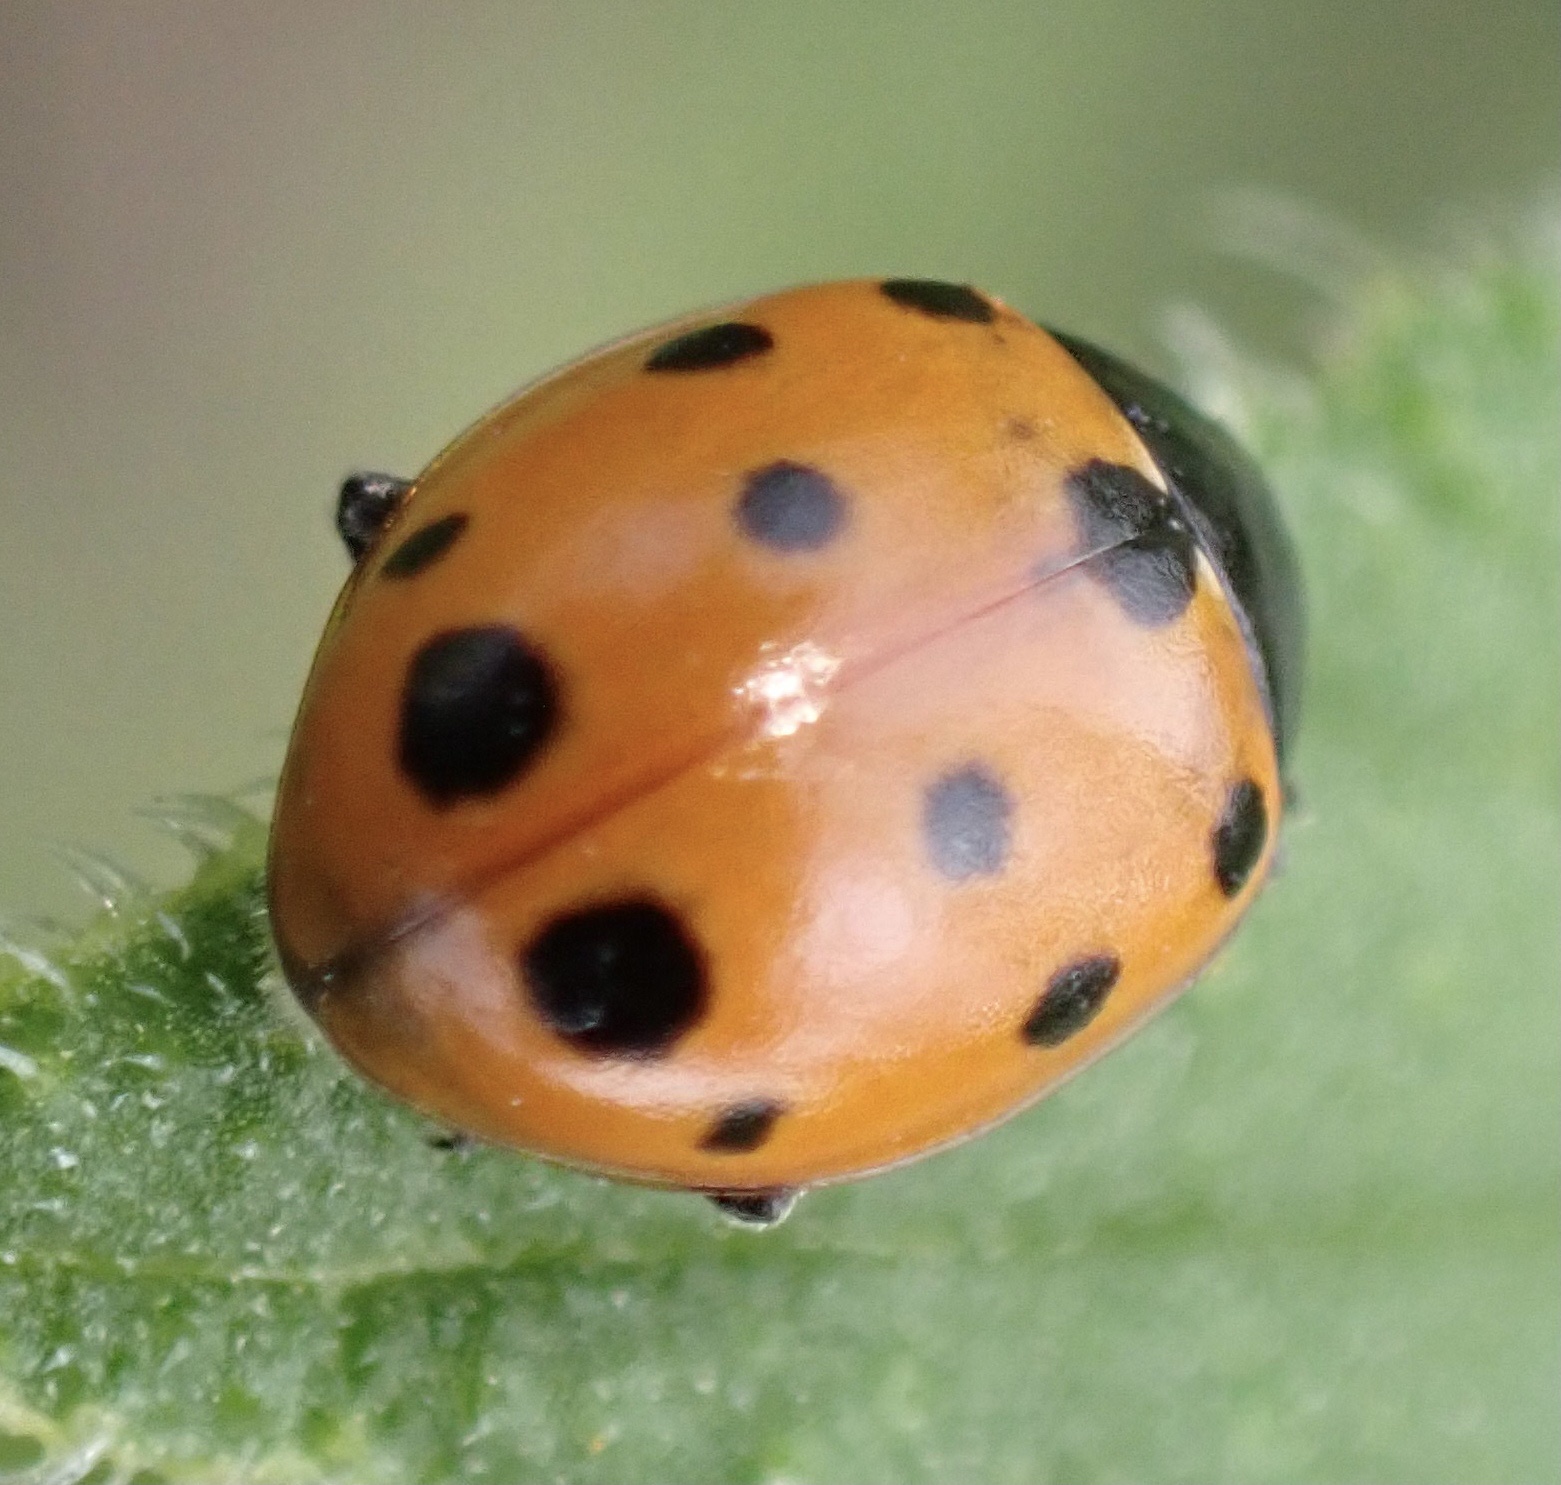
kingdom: Animalia
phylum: Arthropoda
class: Insecta
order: Coleoptera
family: Coccinellidae
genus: Coccinella
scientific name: Coccinella undecimpunctata
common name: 11-spot ladybird
